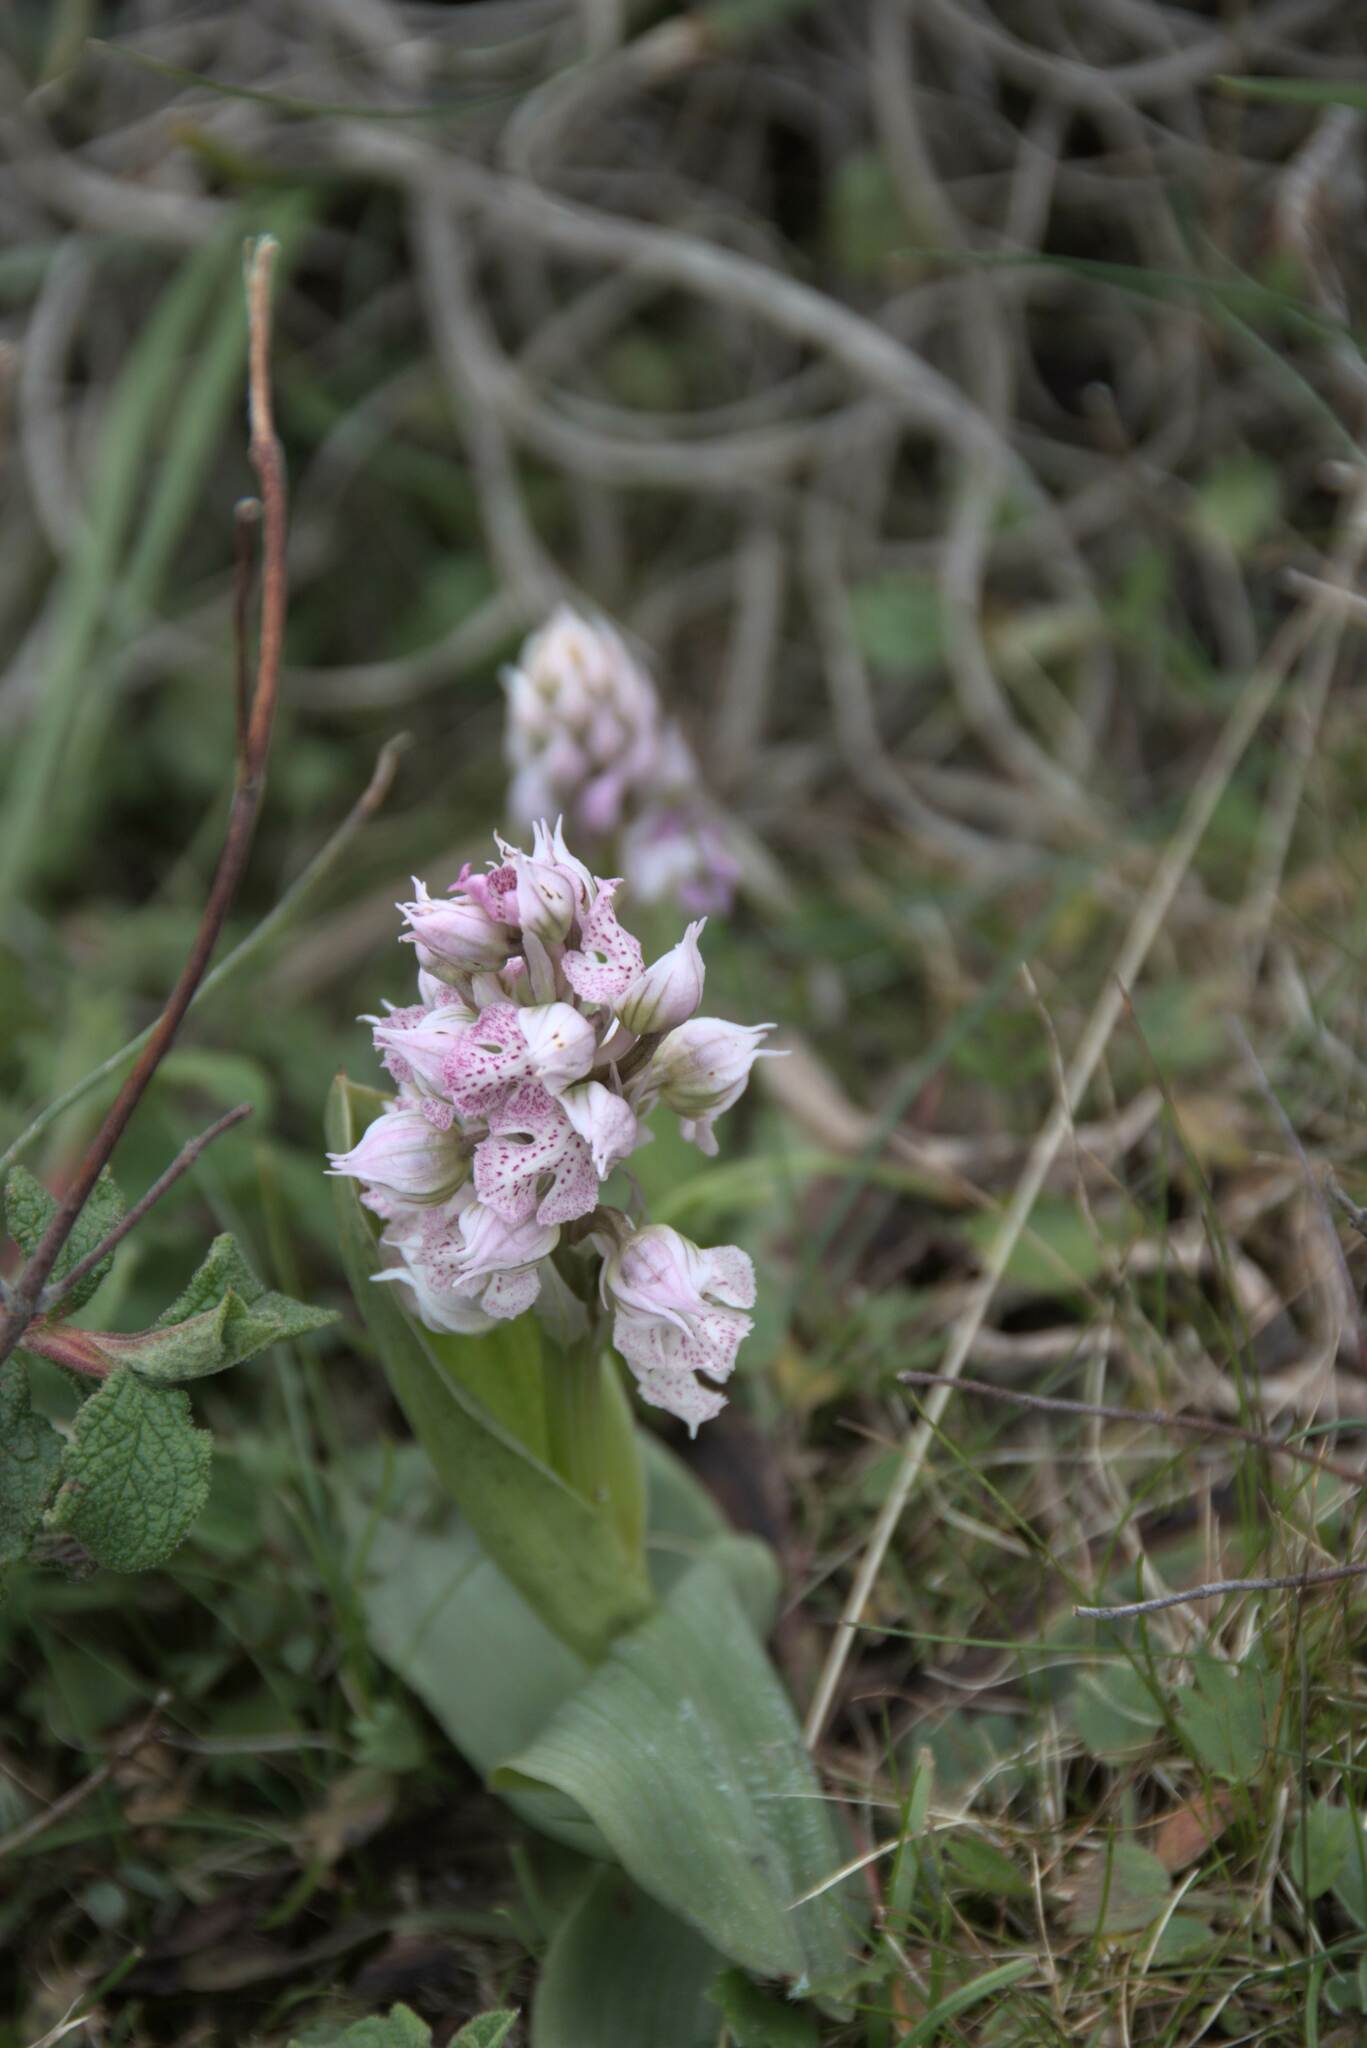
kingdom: Plantae
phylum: Tracheophyta
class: Liliopsida
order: Asparagales
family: Orchidaceae
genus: Neotinea
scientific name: Neotinea lactea
